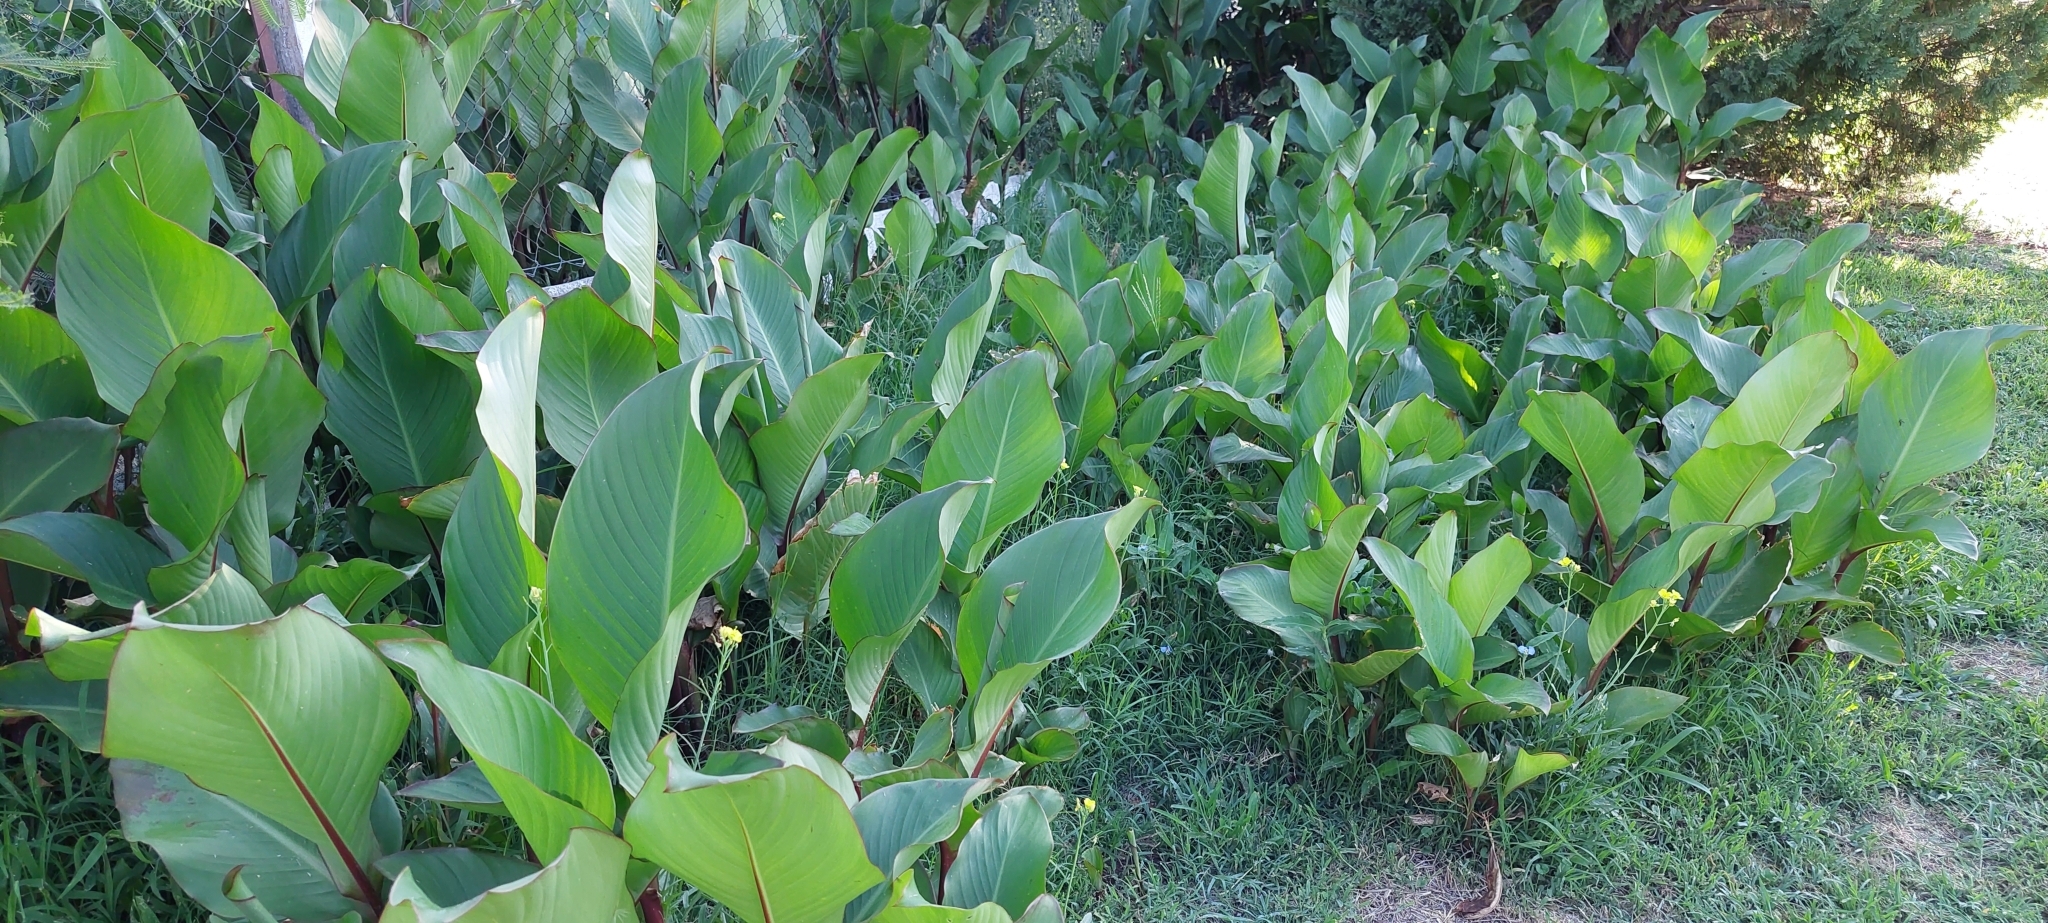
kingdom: Plantae
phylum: Tracheophyta
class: Liliopsida
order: Zingiberales
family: Cannaceae
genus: Canna
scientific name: Canna indica
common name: Indian shot
